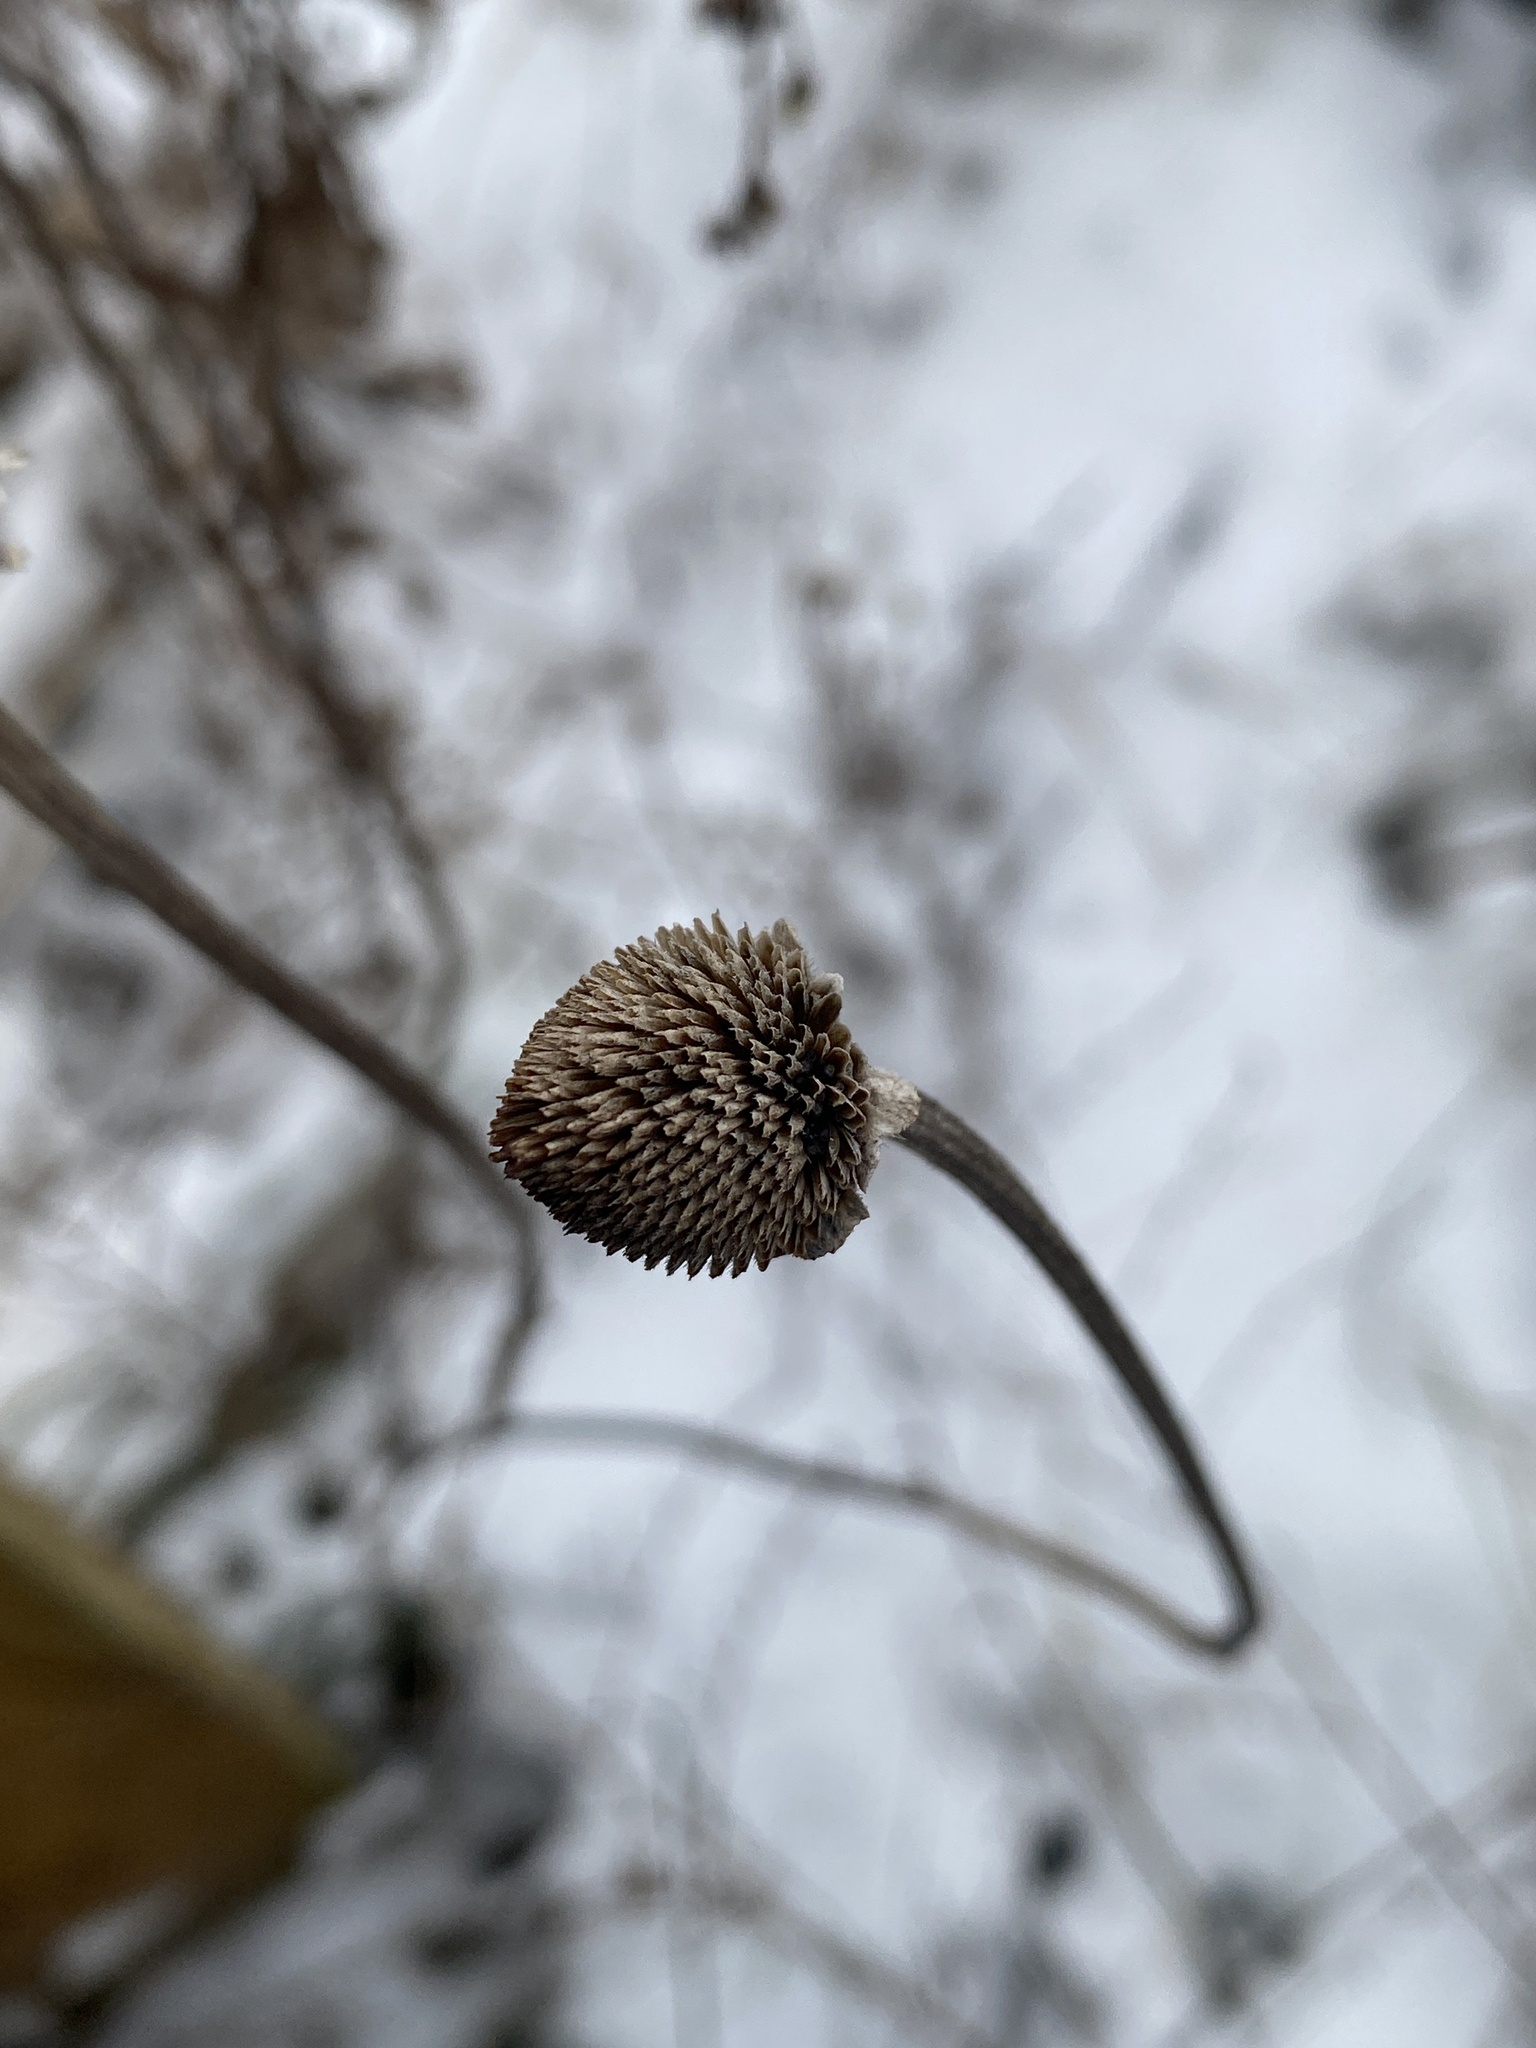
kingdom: Plantae
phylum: Tracheophyta
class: Magnoliopsida
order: Asterales
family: Asteraceae
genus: Rudbeckia
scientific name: Rudbeckia hirta
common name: Black-eyed-susan
